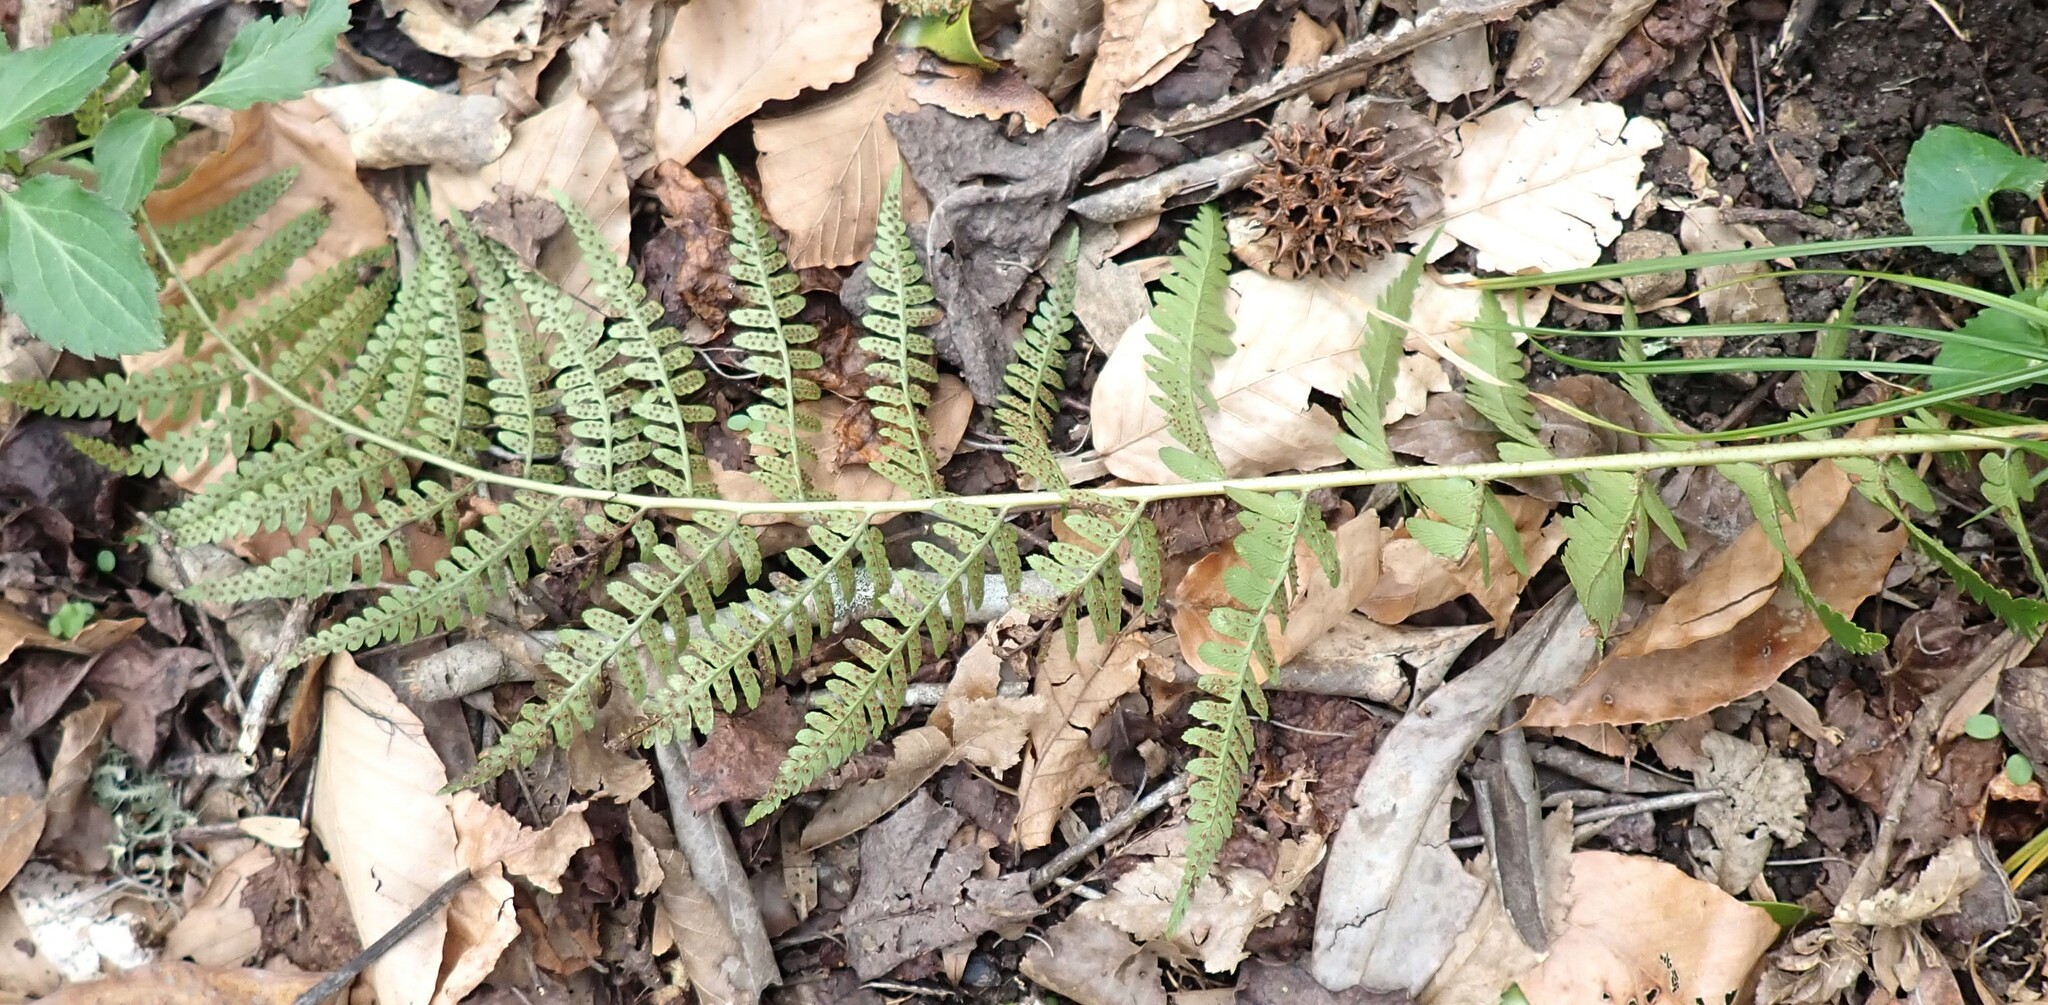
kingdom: Plantae
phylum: Tracheophyta
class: Polypodiopsida
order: Polypodiales
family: Dryopteridaceae
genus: Dryopteris
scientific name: Dryopteris ludoviciana
